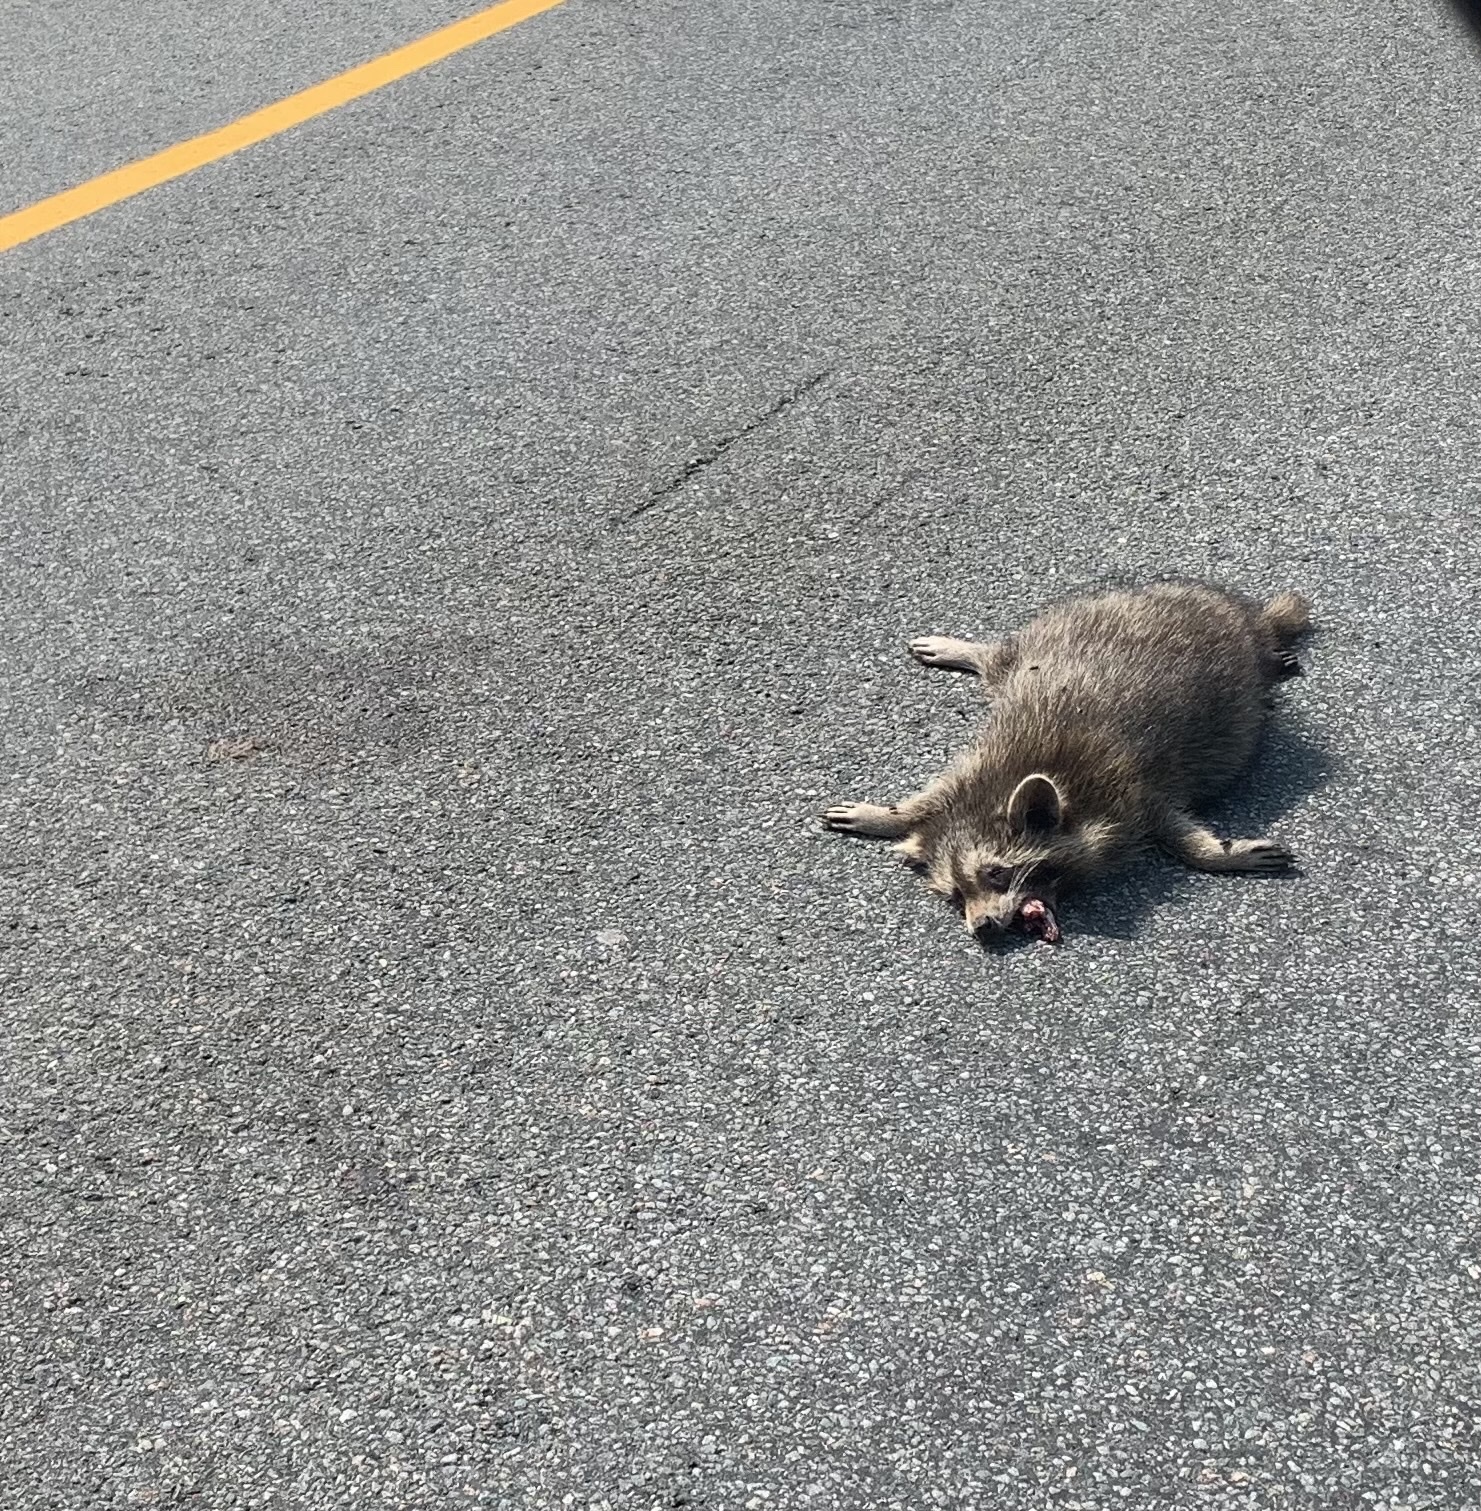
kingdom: Animalia
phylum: Chordata
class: Mammalia
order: Carnivora
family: Procyonidae
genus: Procyon
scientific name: Procyon lotor
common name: Raccoon
